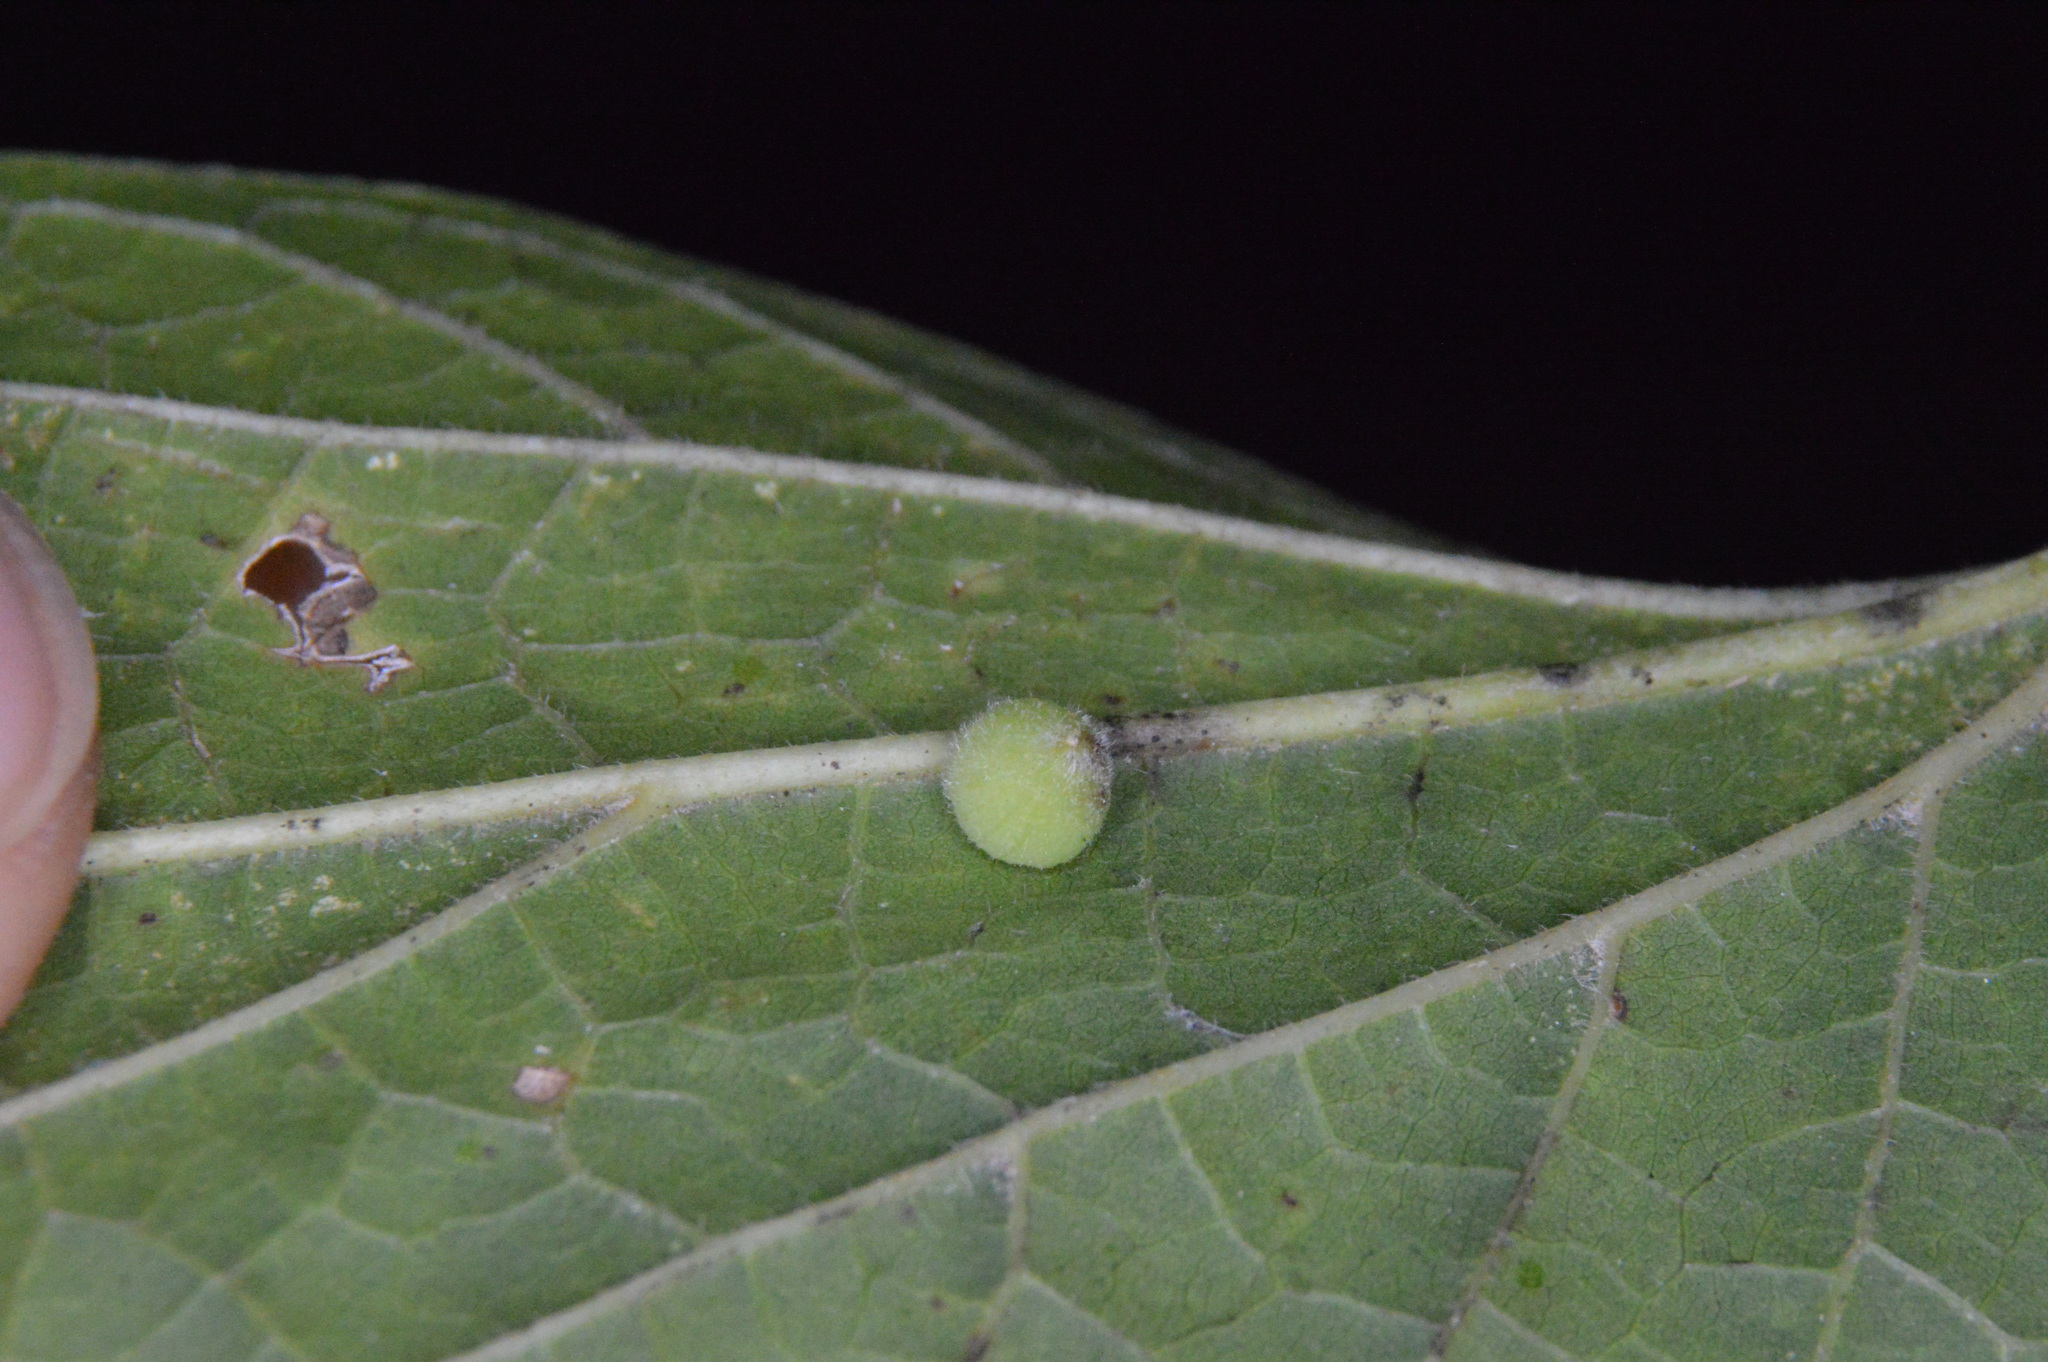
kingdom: Animalia
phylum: Arthropoda
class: Insecta
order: Diptera
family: Cecidomyiidae
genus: Celticecis
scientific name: Celticecis globosa
